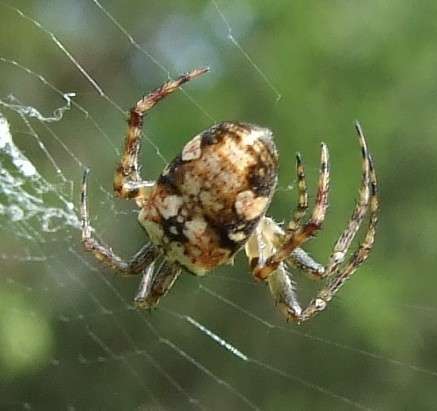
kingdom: Animalia
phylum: Arthropoda
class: Arachnida
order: Araneae
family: Araneidae
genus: Plebs
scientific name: Plebs eburnus
